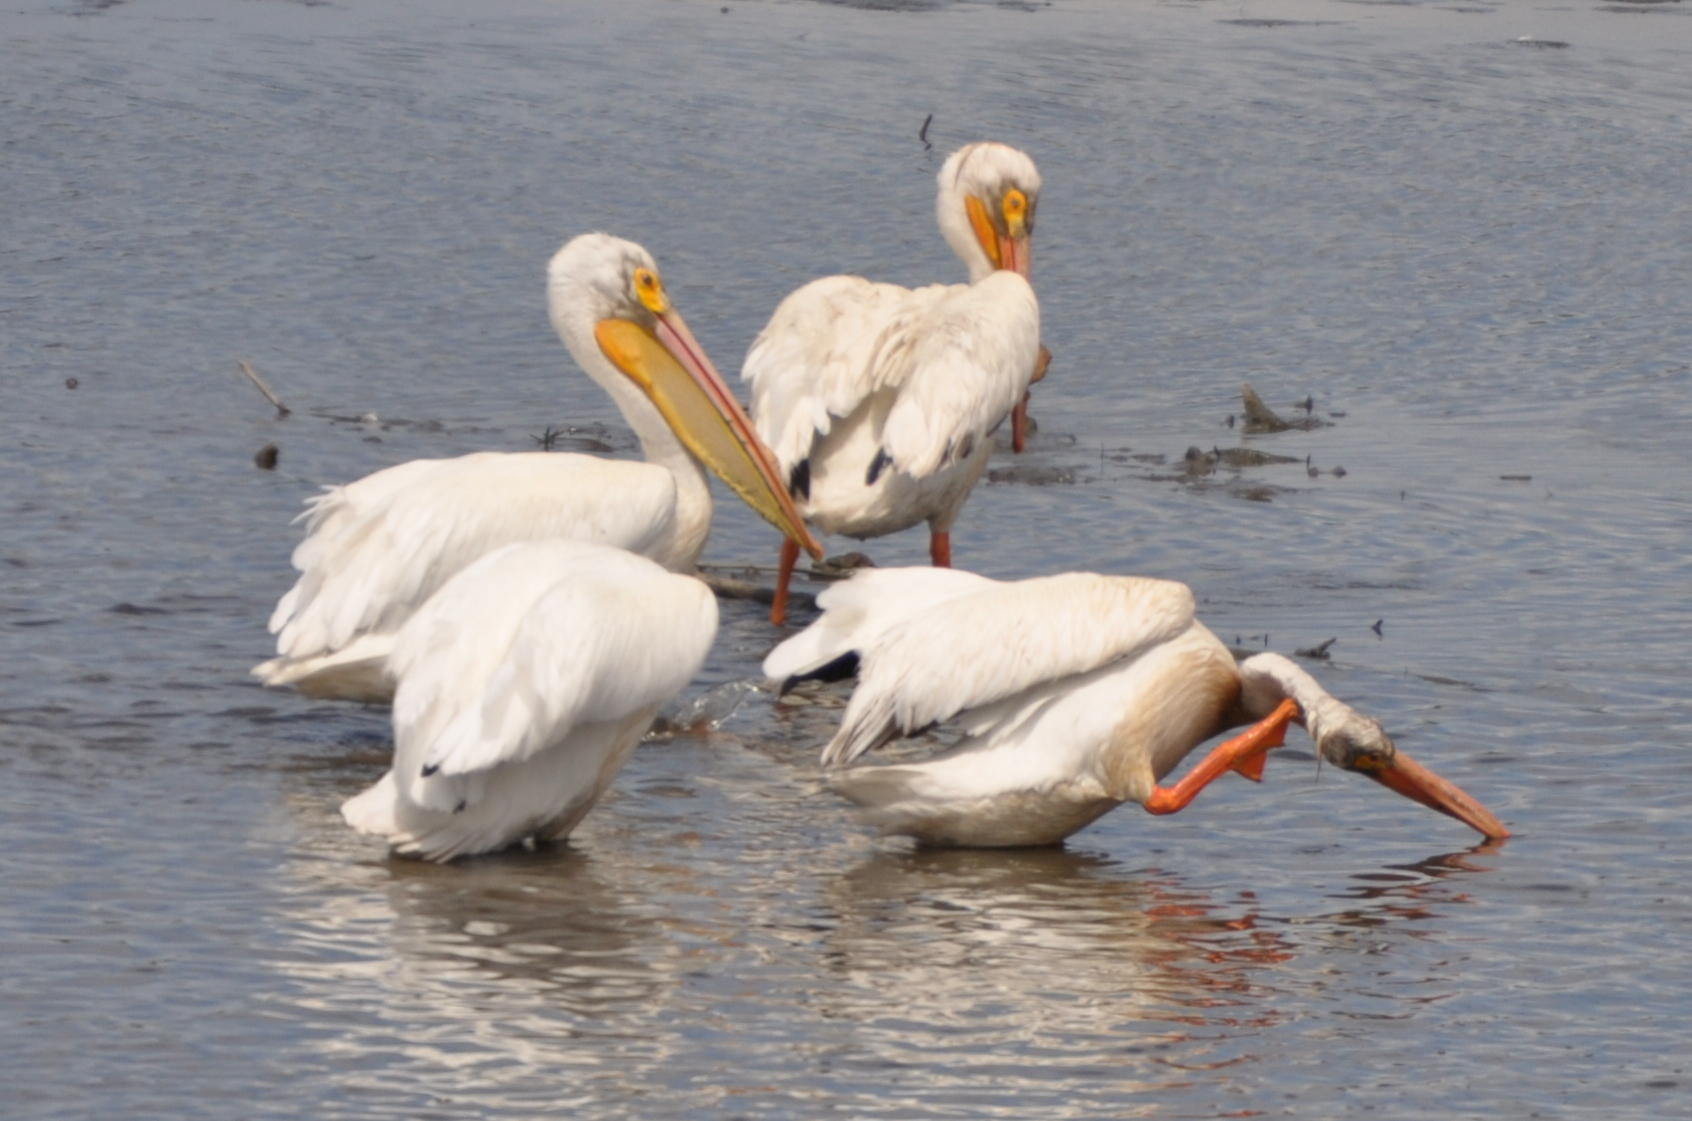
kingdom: Animalia
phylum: Chordata
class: Aves
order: Pelecaniformes
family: Pelecanidae
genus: Pelecanus
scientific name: Pelecanus erythrorhynchos
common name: American white pelican
